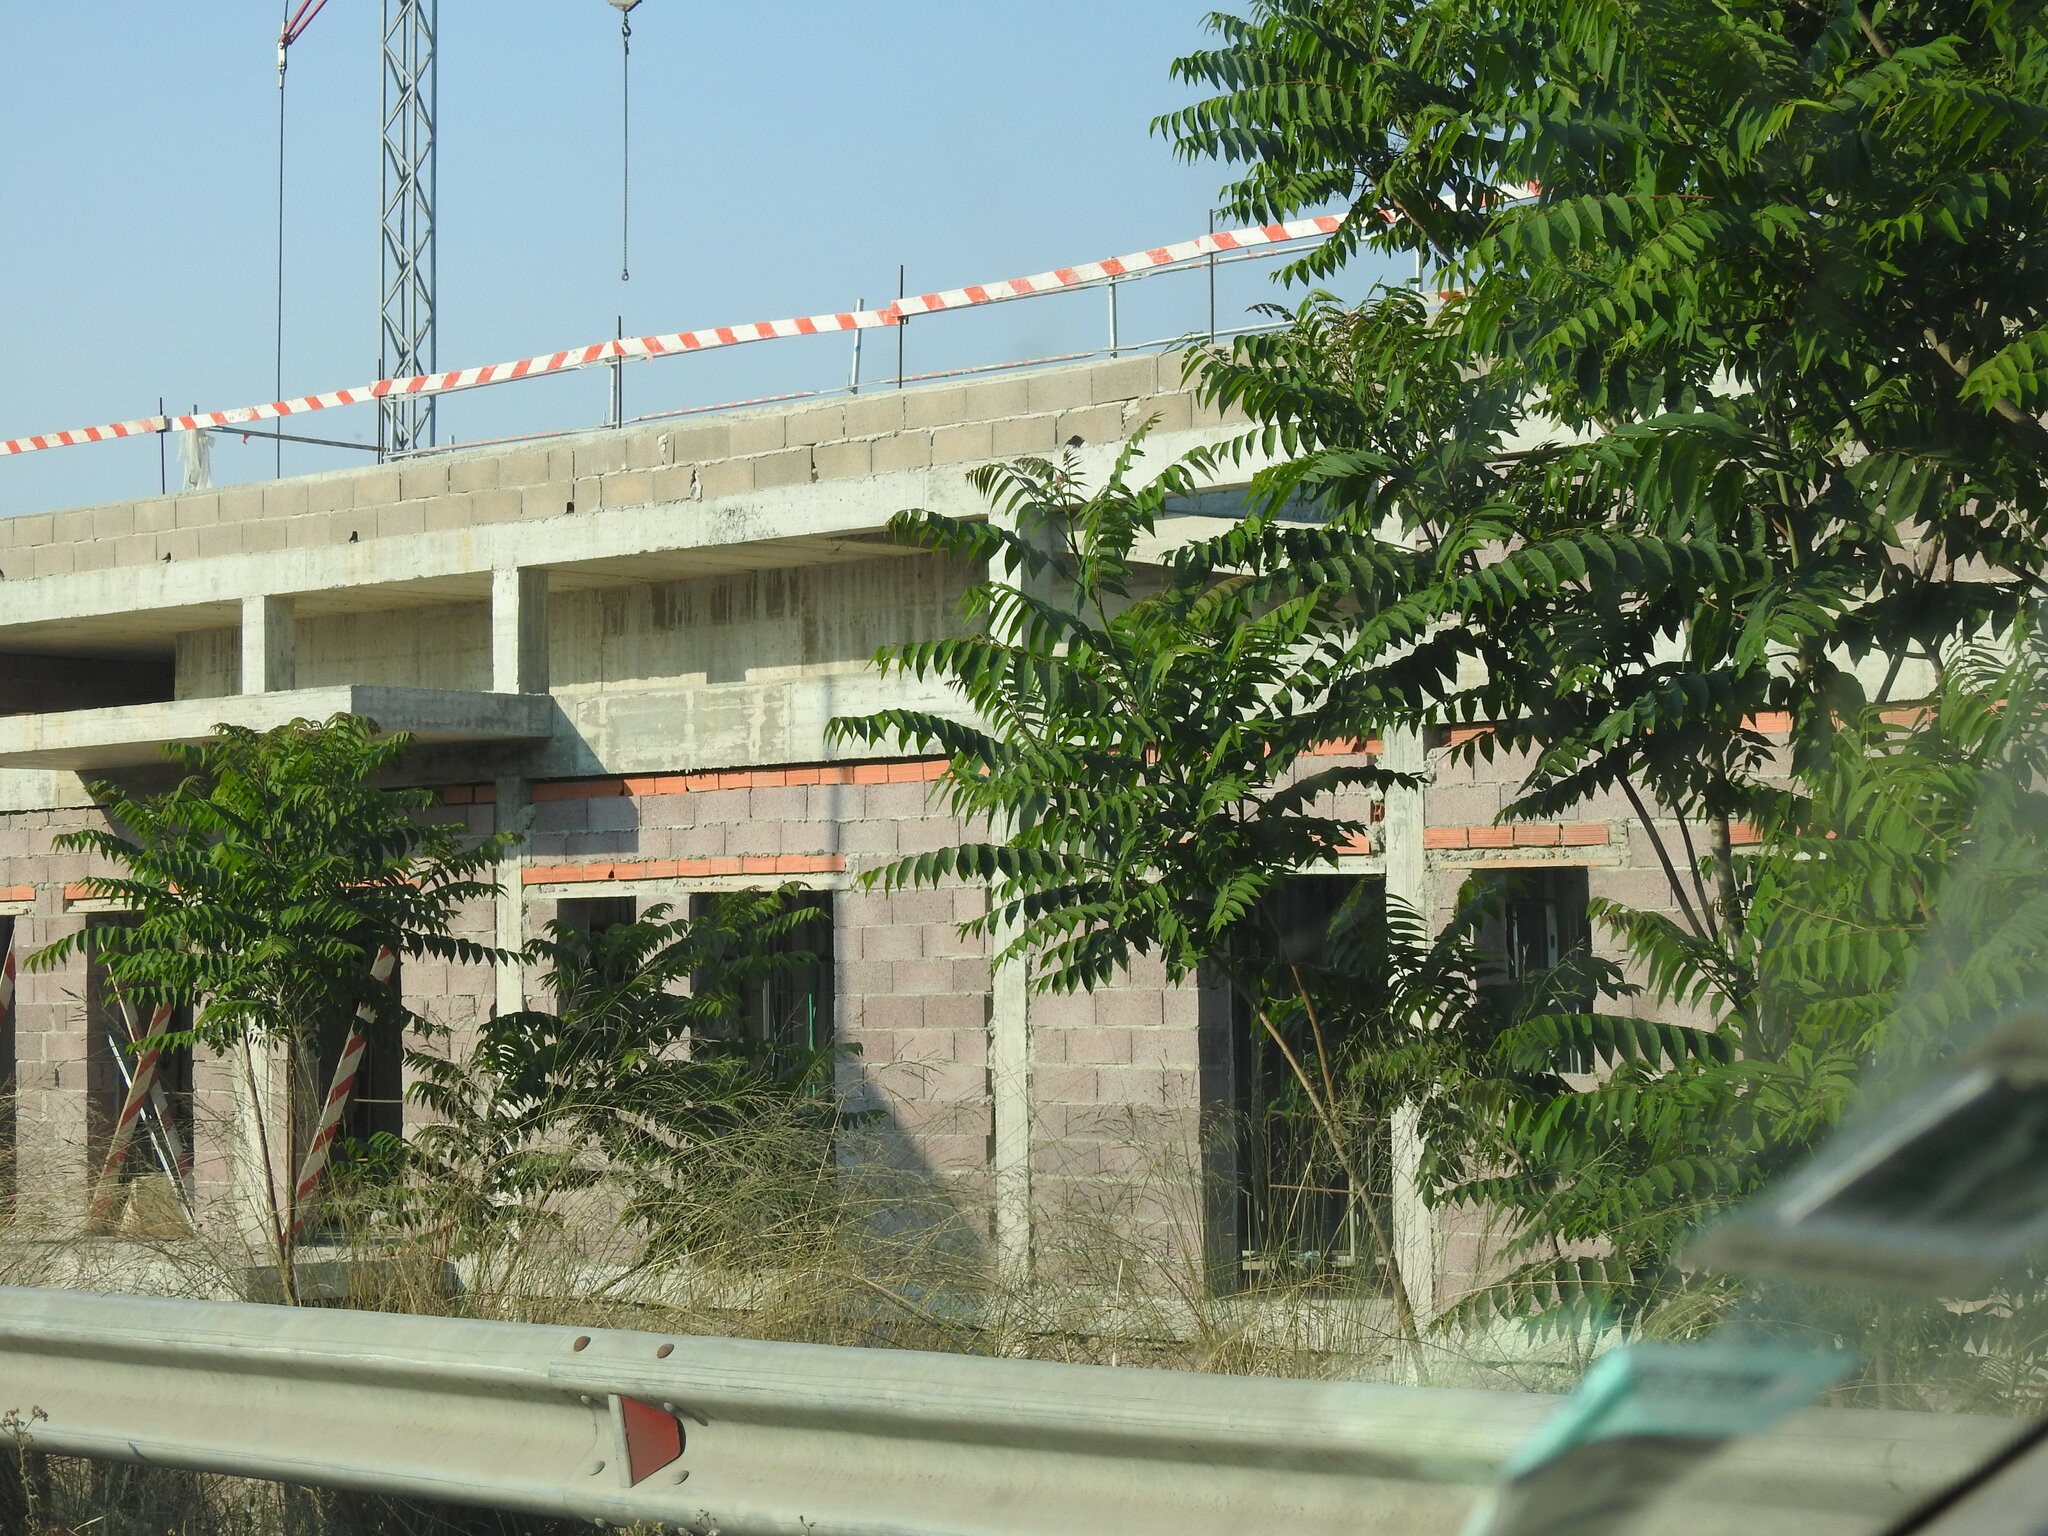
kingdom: Plantae
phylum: Tracheophyta
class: Magnoliopsida
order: Sapindales
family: Simaroubaceae
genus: Ailanthus
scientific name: Ailanthus altissima
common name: Tree-of-heaven
